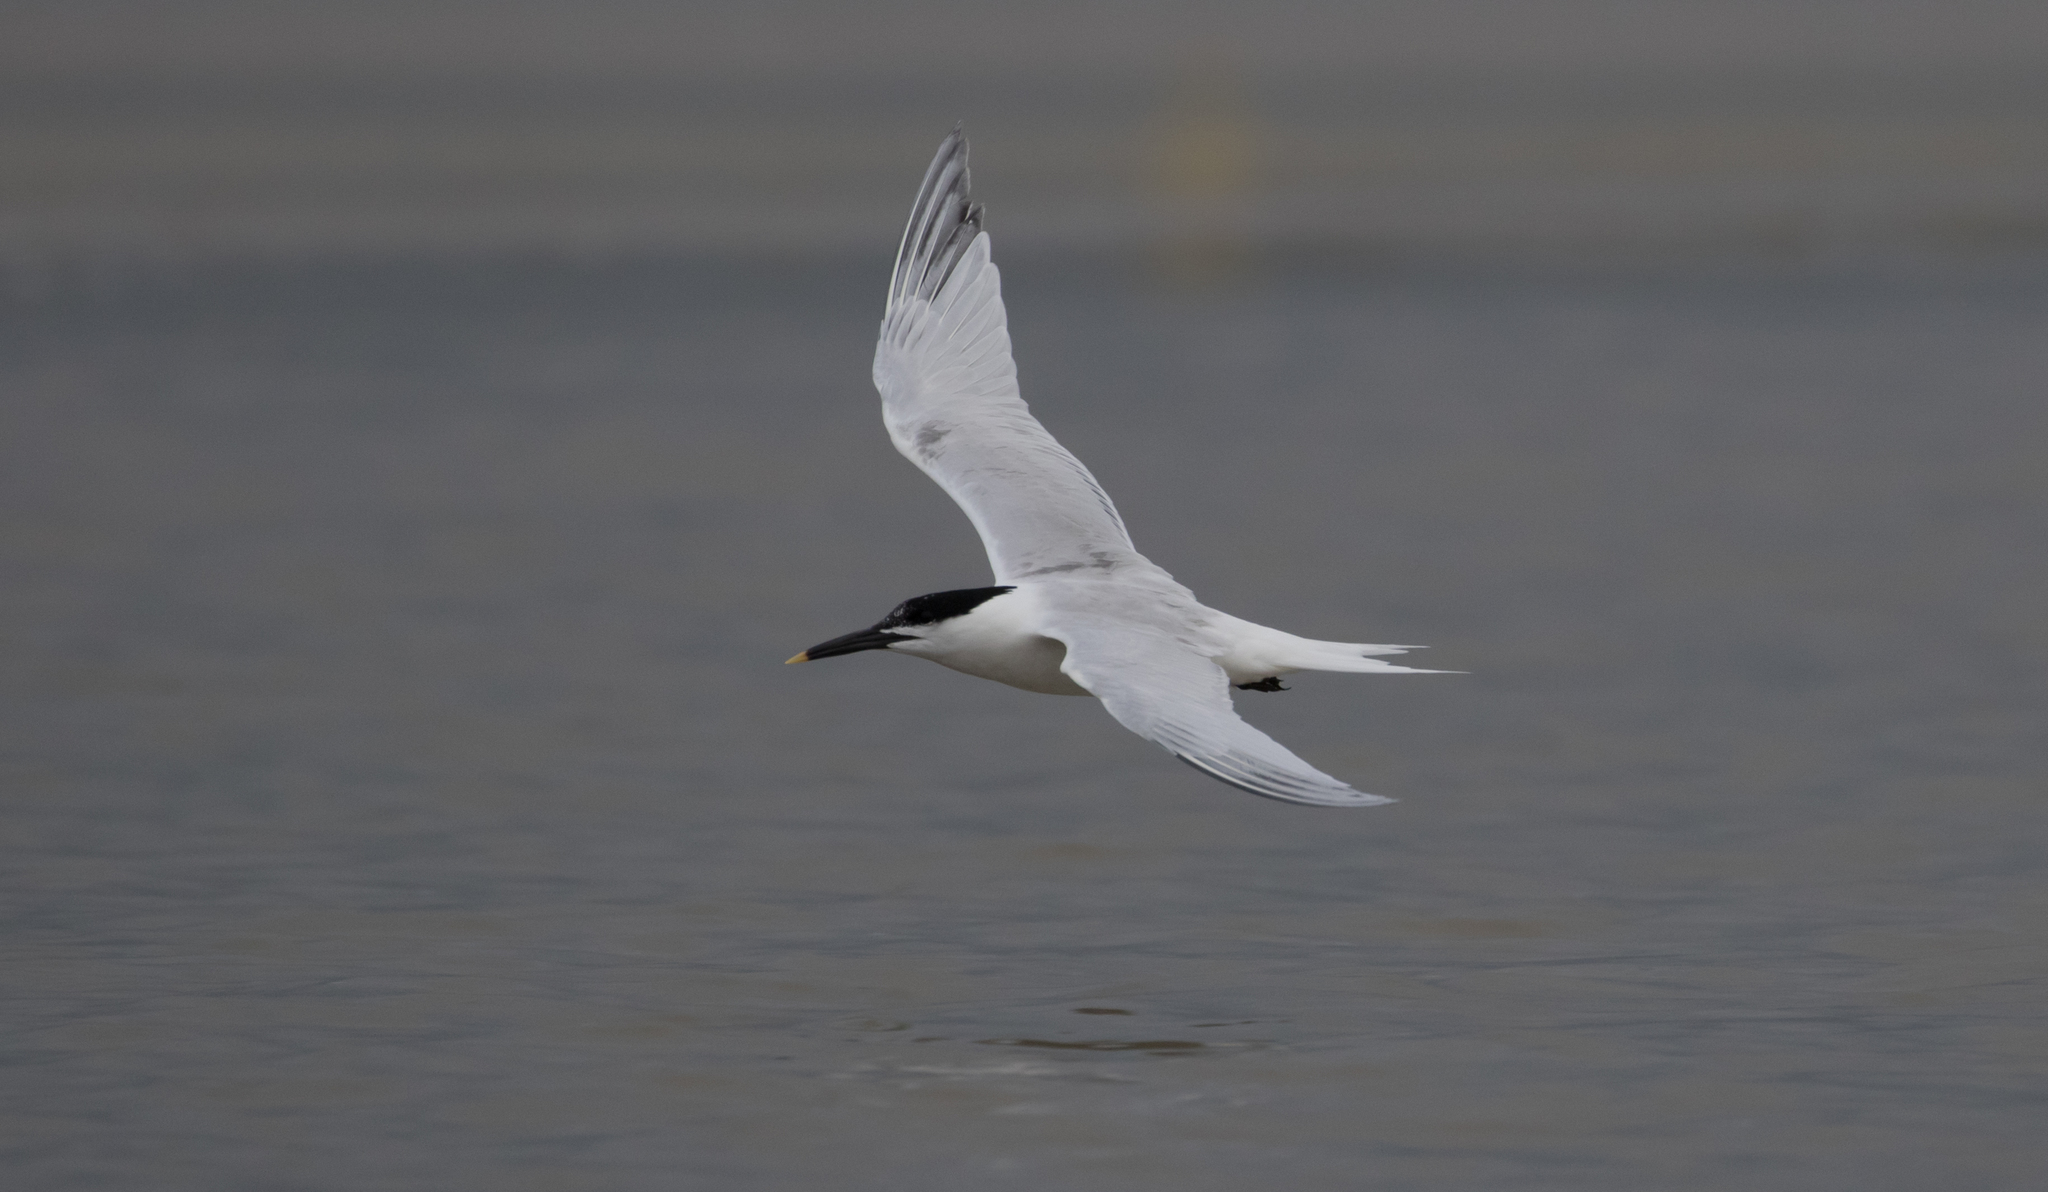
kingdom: Animalia
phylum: Chordata
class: Aves
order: Charadriiformes
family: Laridae
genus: Thalasseus
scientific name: Thalasseus sandvicensis
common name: Sandwich tern
